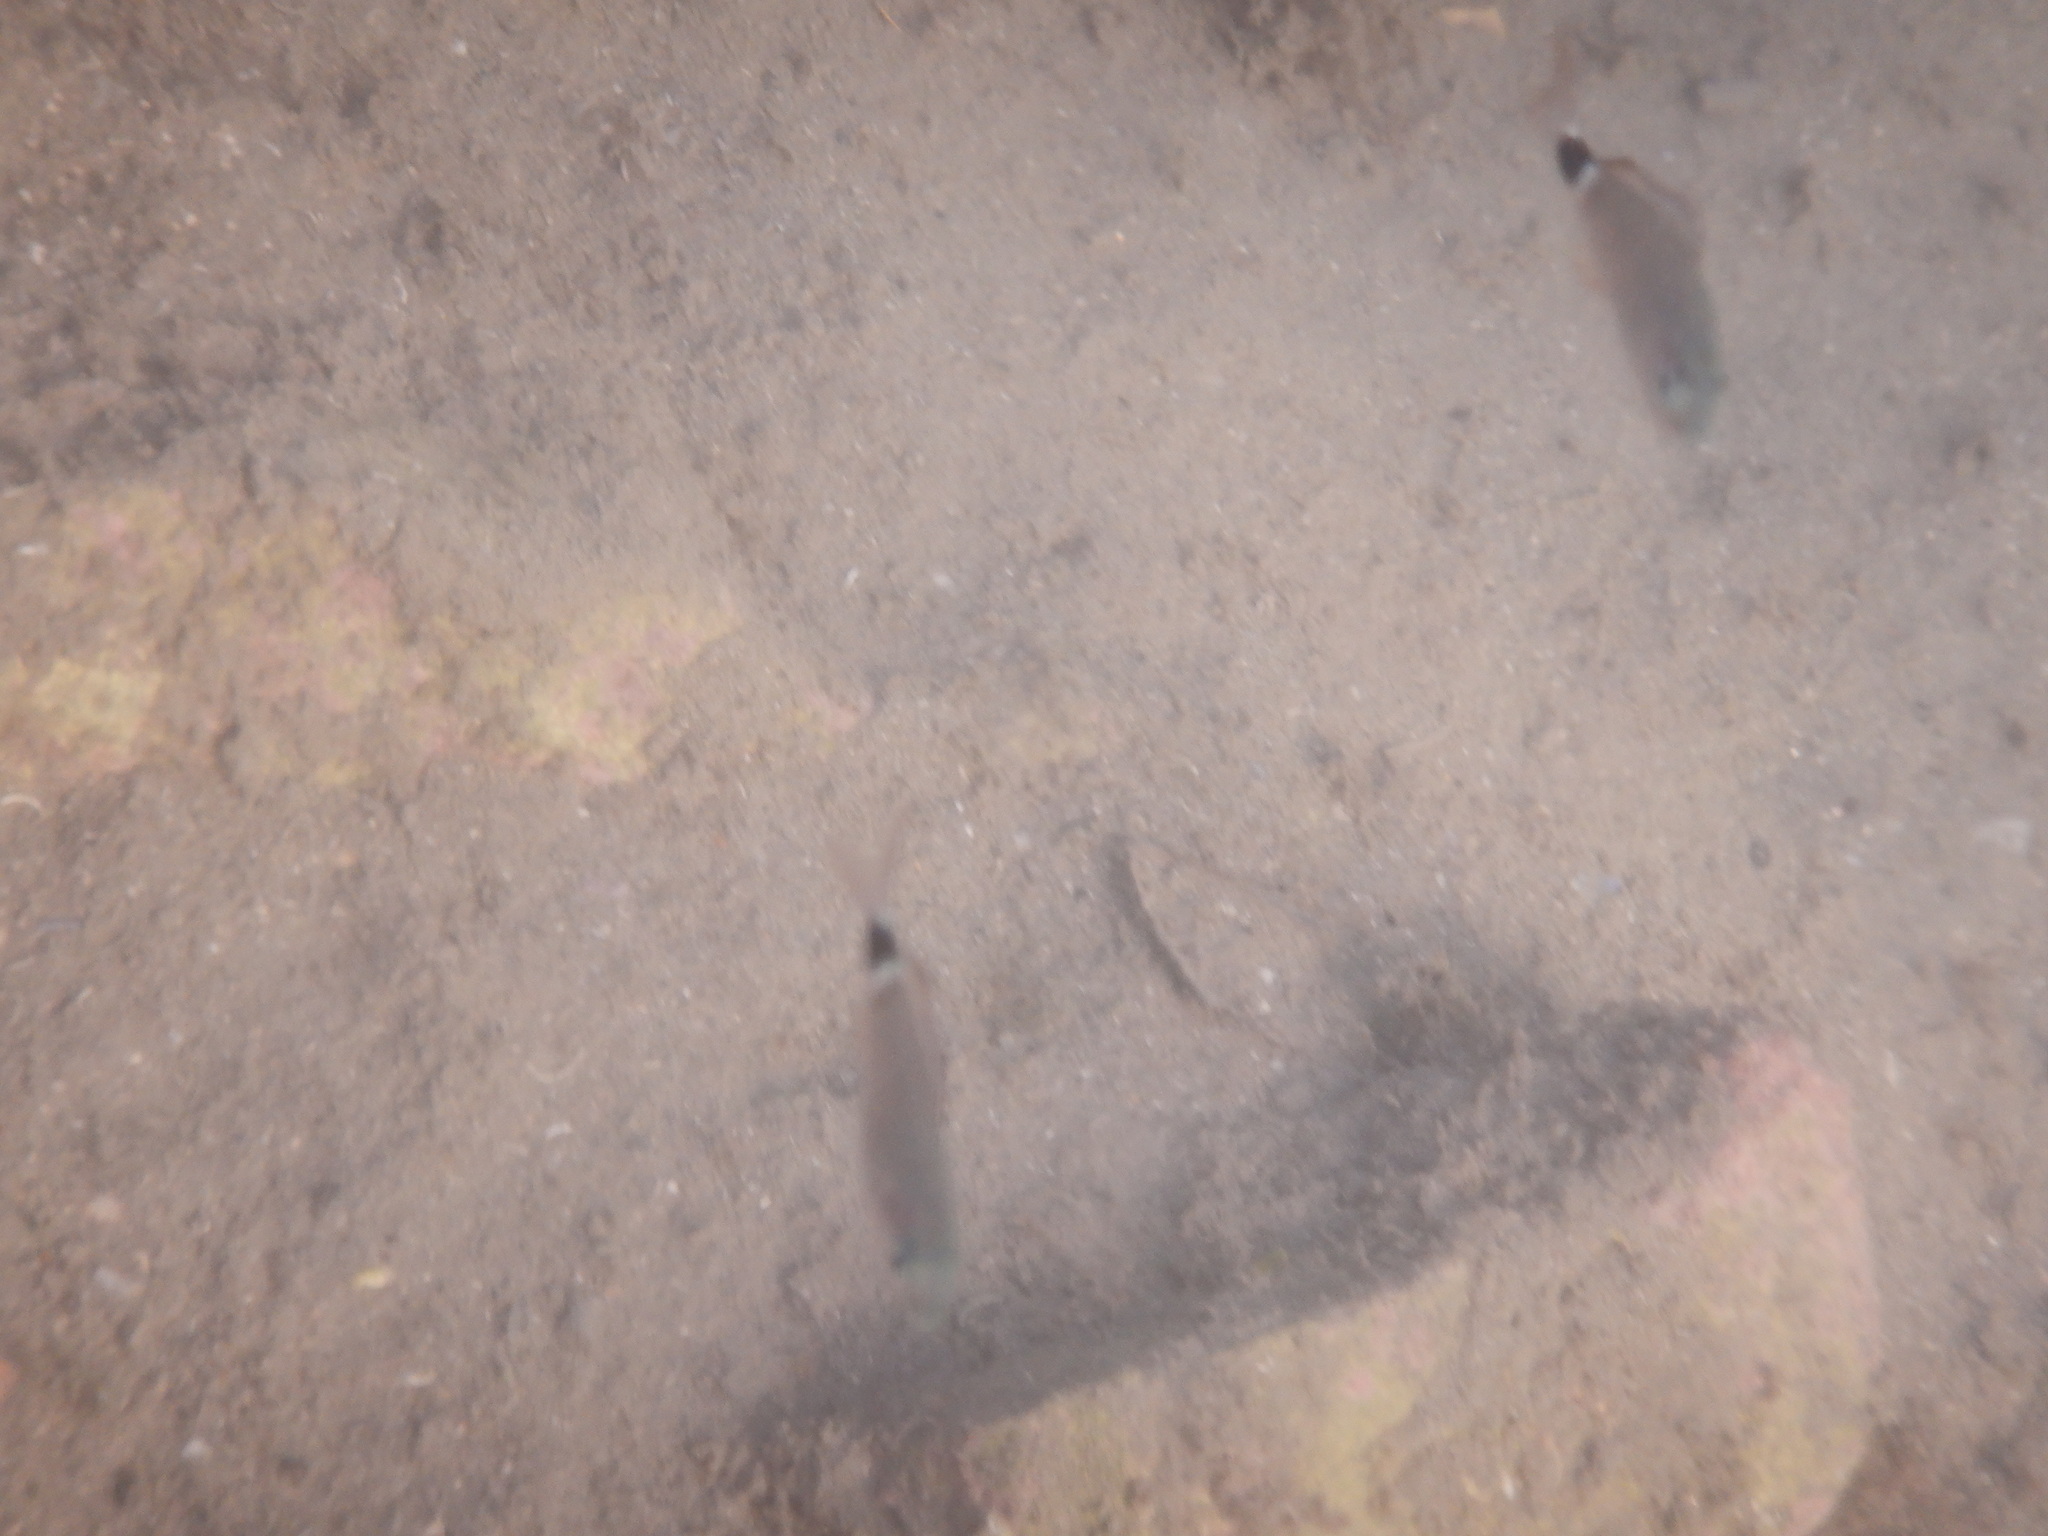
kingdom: Animalia
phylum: Chordata
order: Perciformes
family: Sparidae
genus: Oblada
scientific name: Oblada melanura
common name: Saddled seabream
